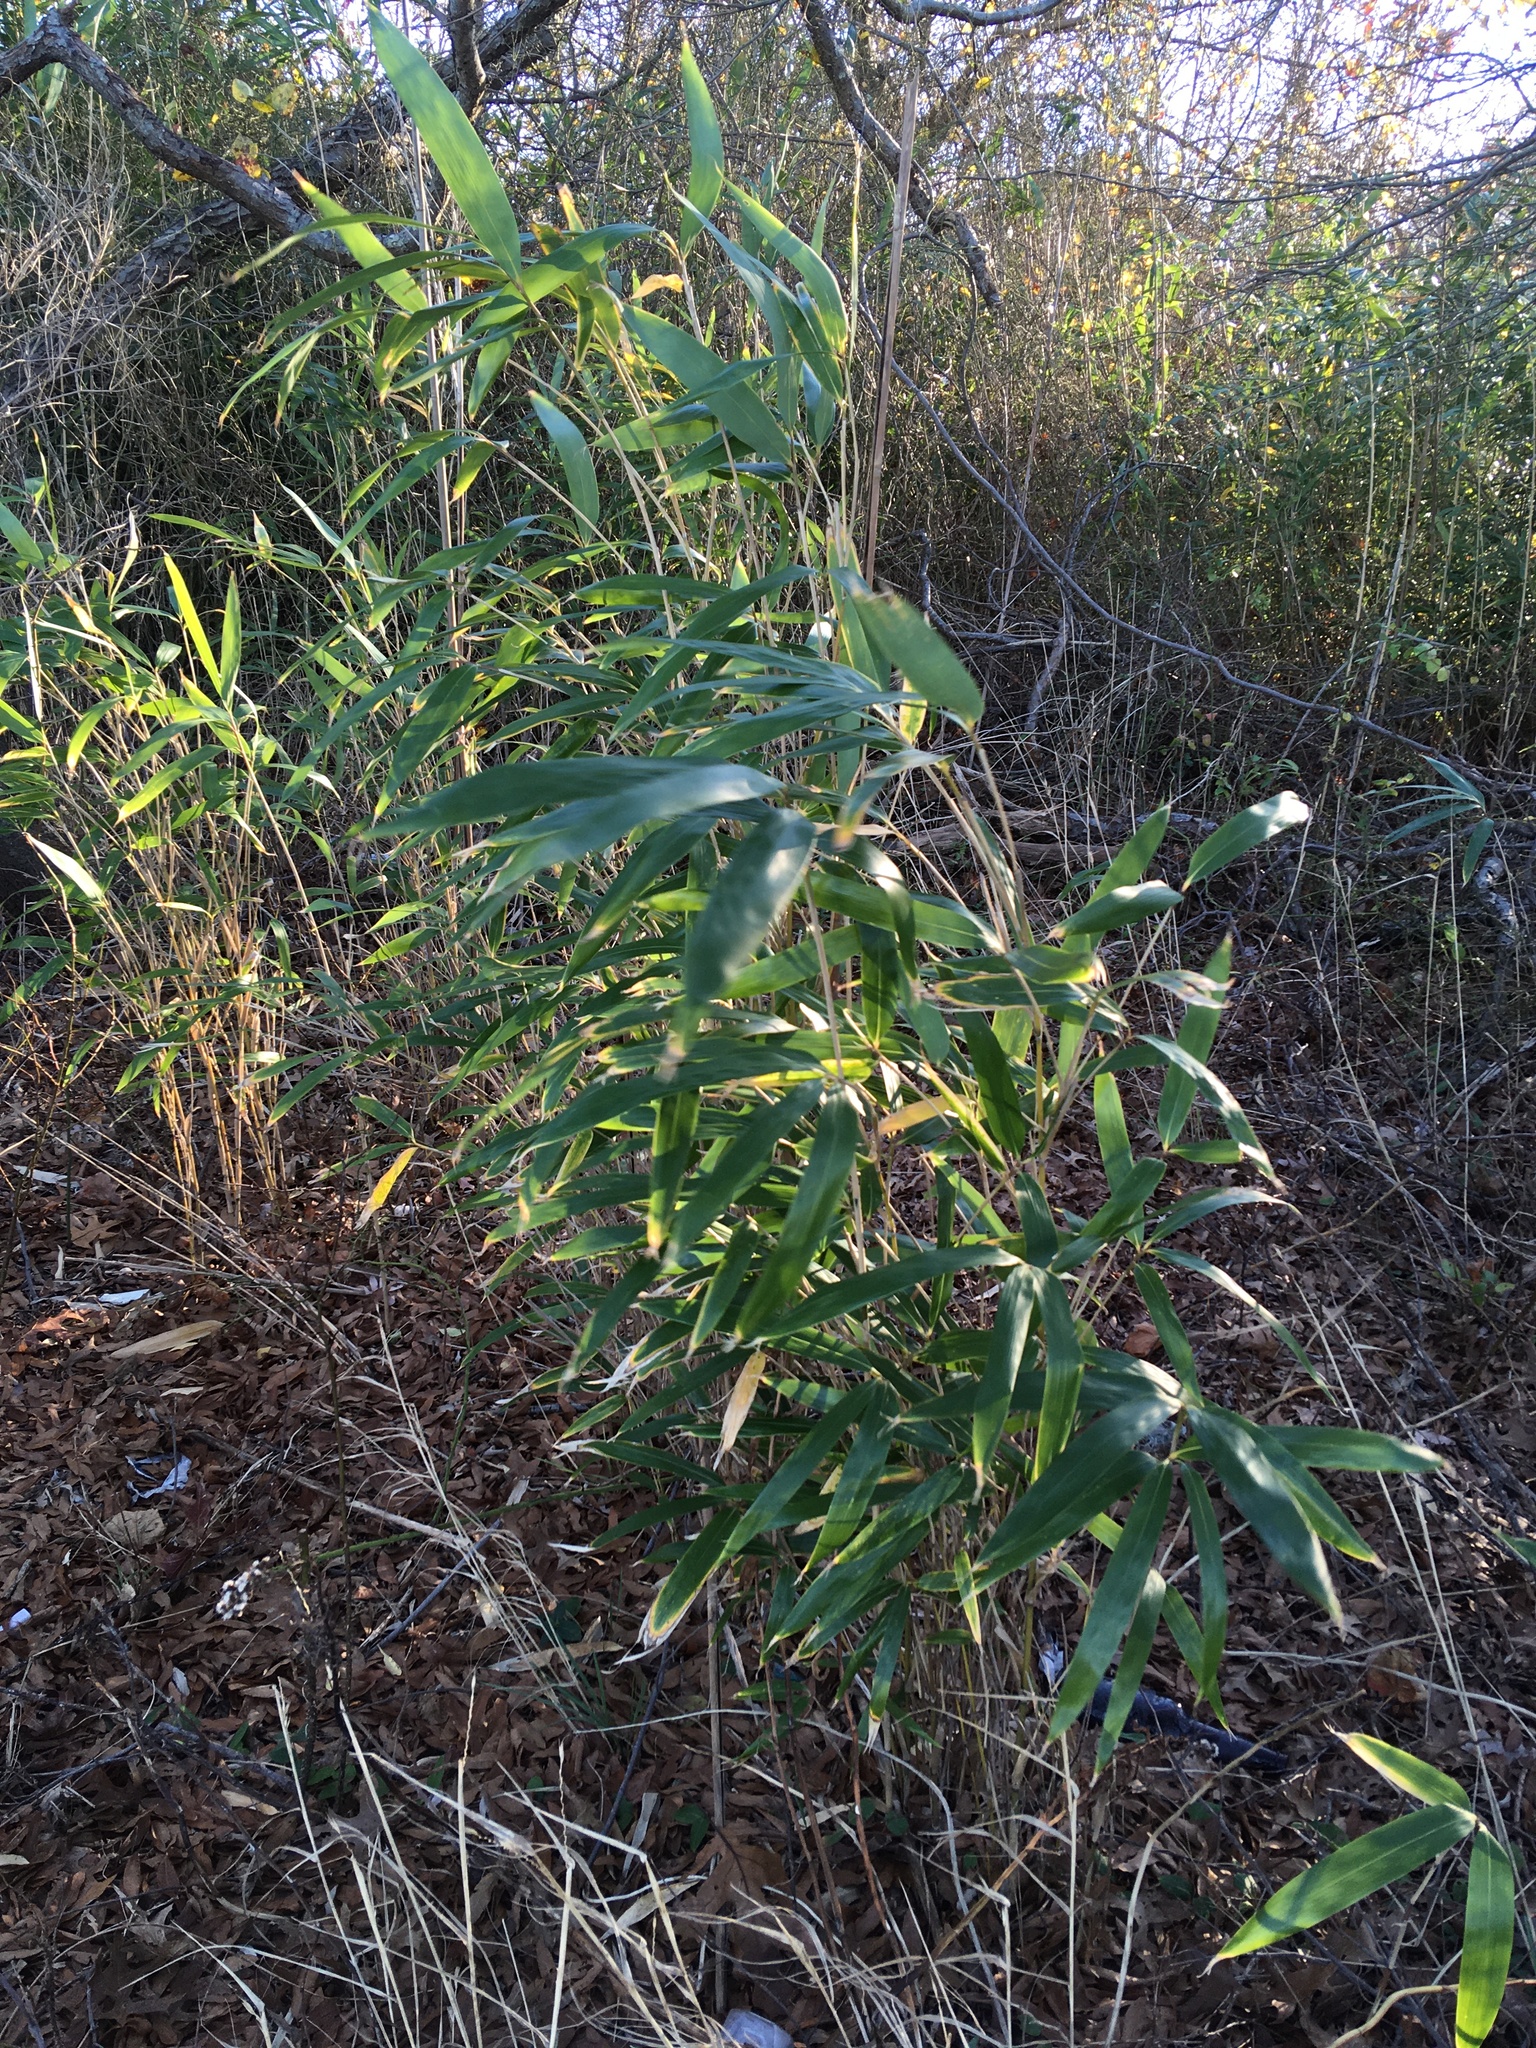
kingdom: Plantae
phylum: Tracheophyta
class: Liliopsida
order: Poales
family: Poaceae
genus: Phyllostachys
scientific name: Phyllostachys aurea
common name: Golden bamboo
